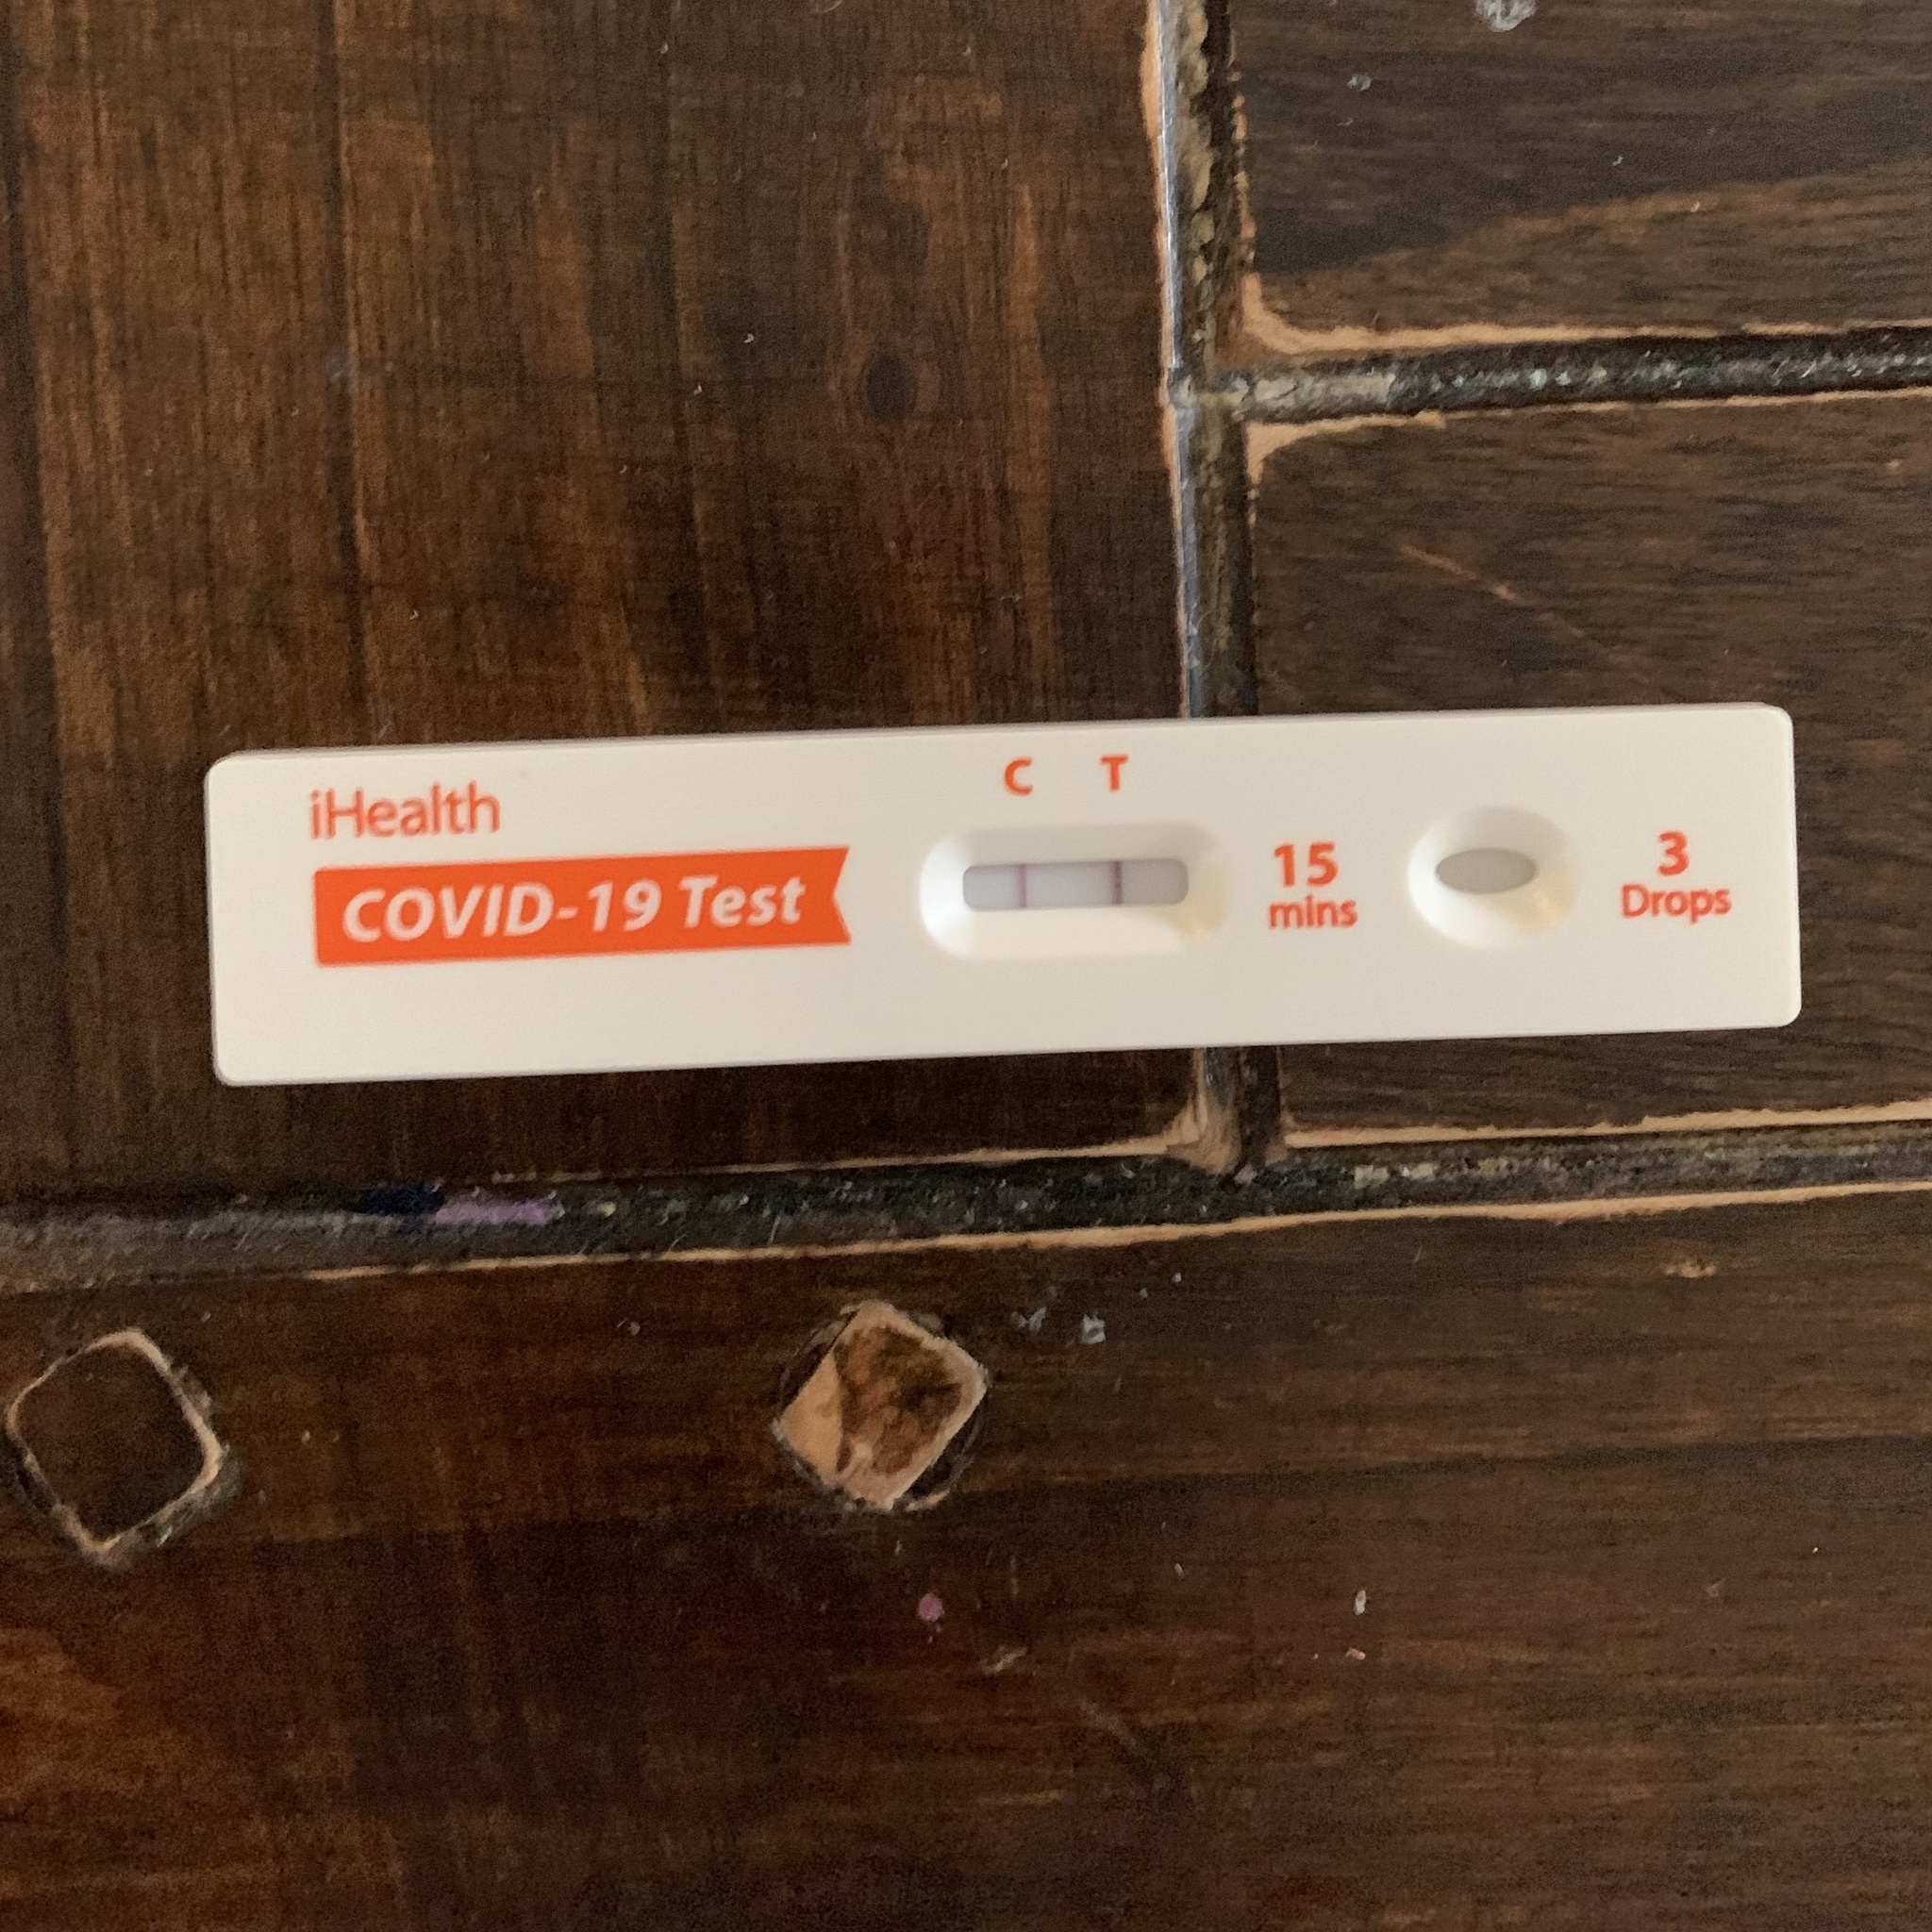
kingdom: Viruses
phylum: Pisuviricota
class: Pisoniviricetes
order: Nidovirales
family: Coronaviridae
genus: Betacoronavirus
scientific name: Betacoronavirus
